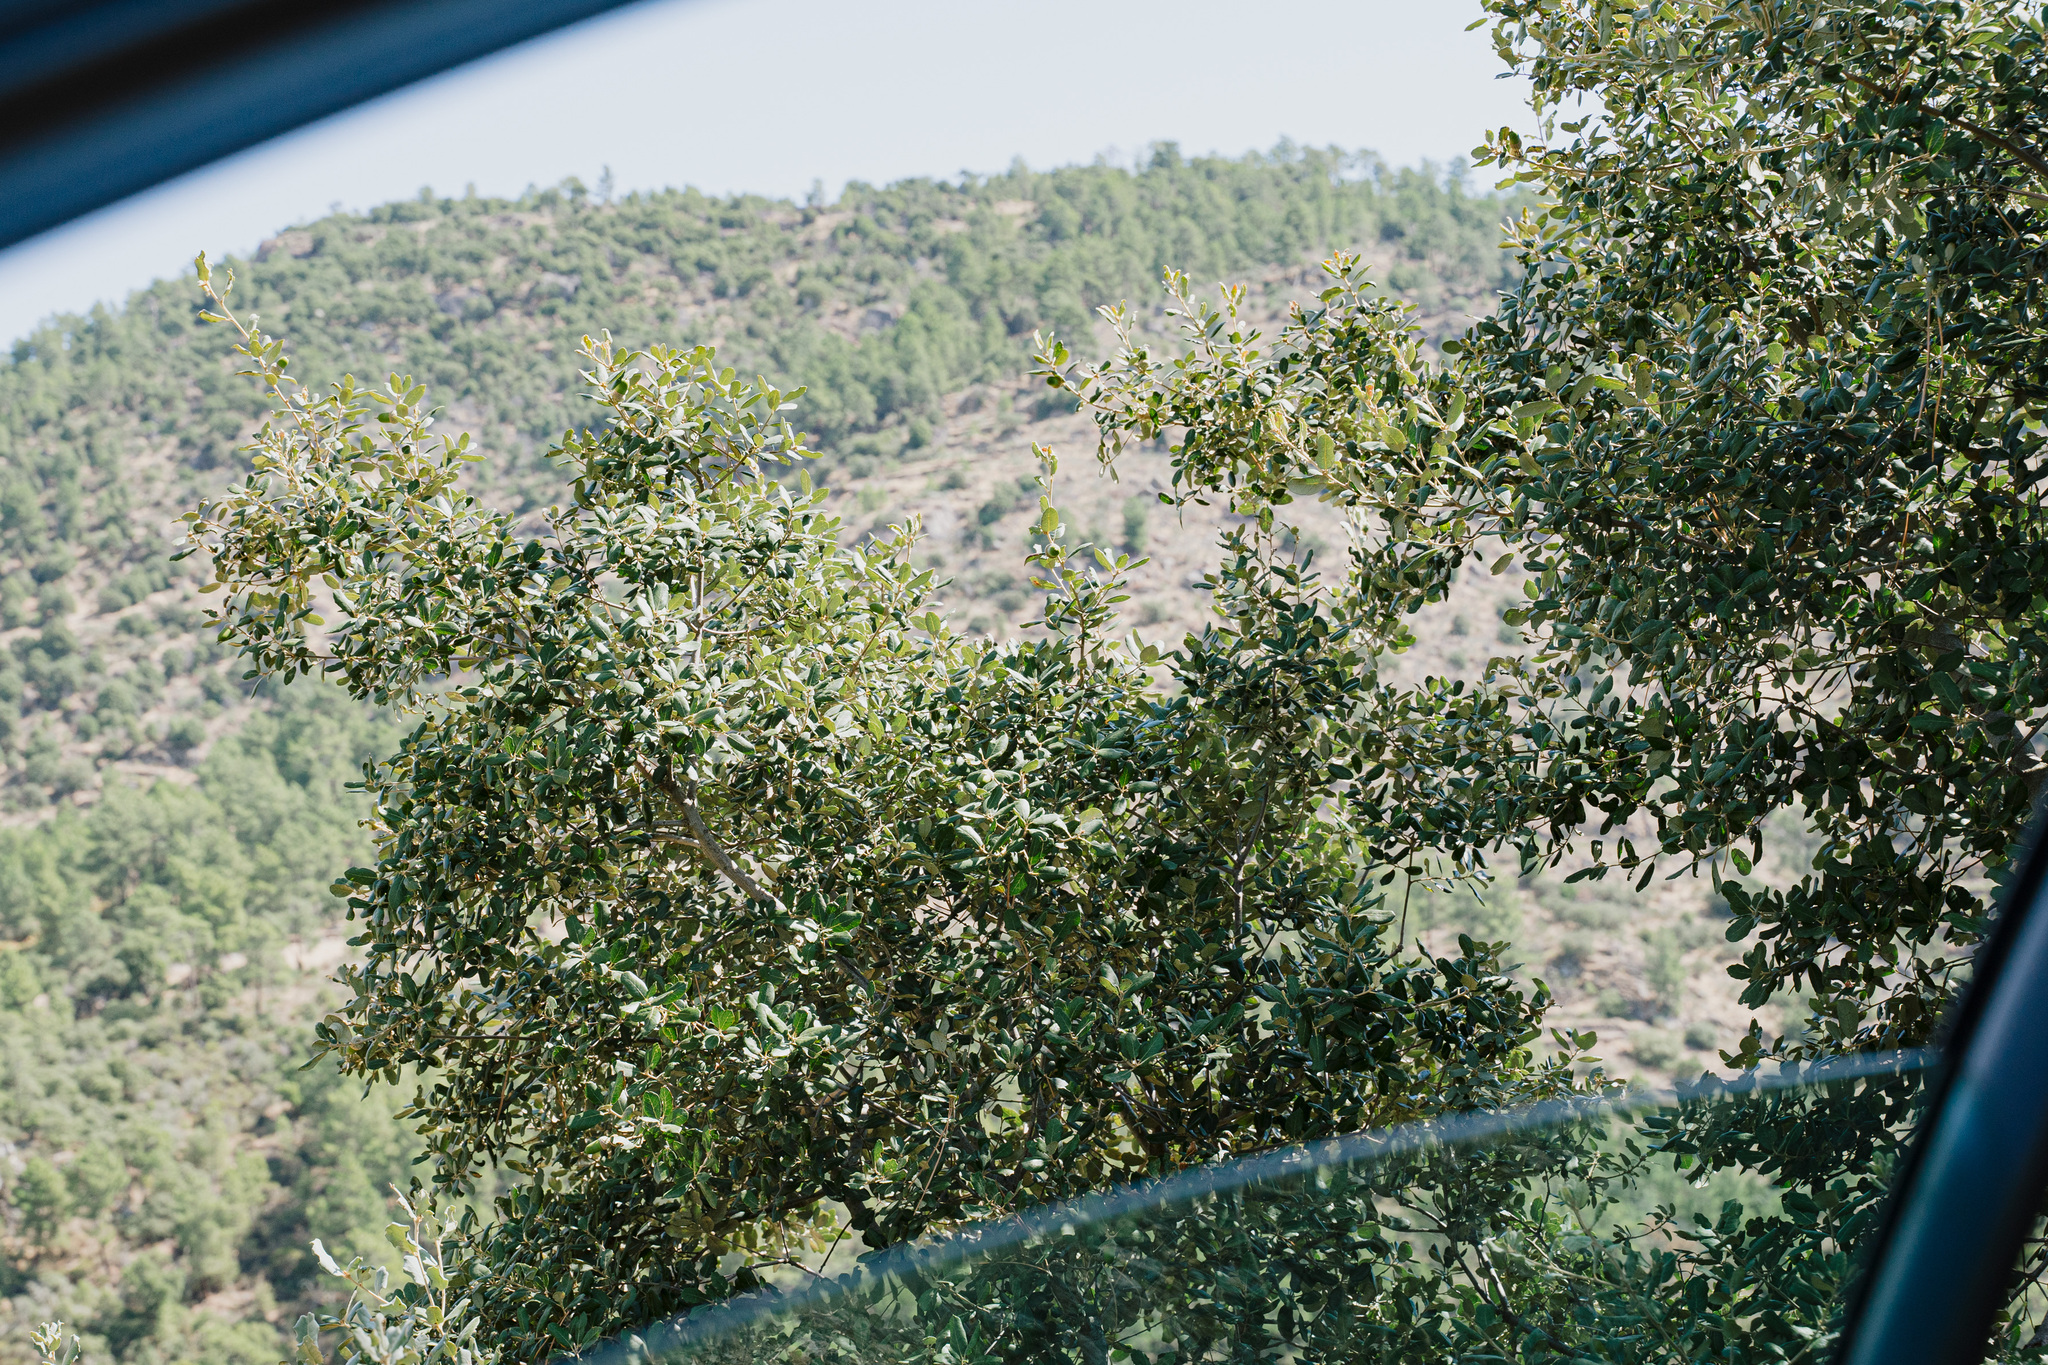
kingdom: Plantae
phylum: Tracheophyta
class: Magnoliopsida
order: Fagales
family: Fagaceae
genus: Quercus
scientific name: Quercus rotundifolia
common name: Holm oak
